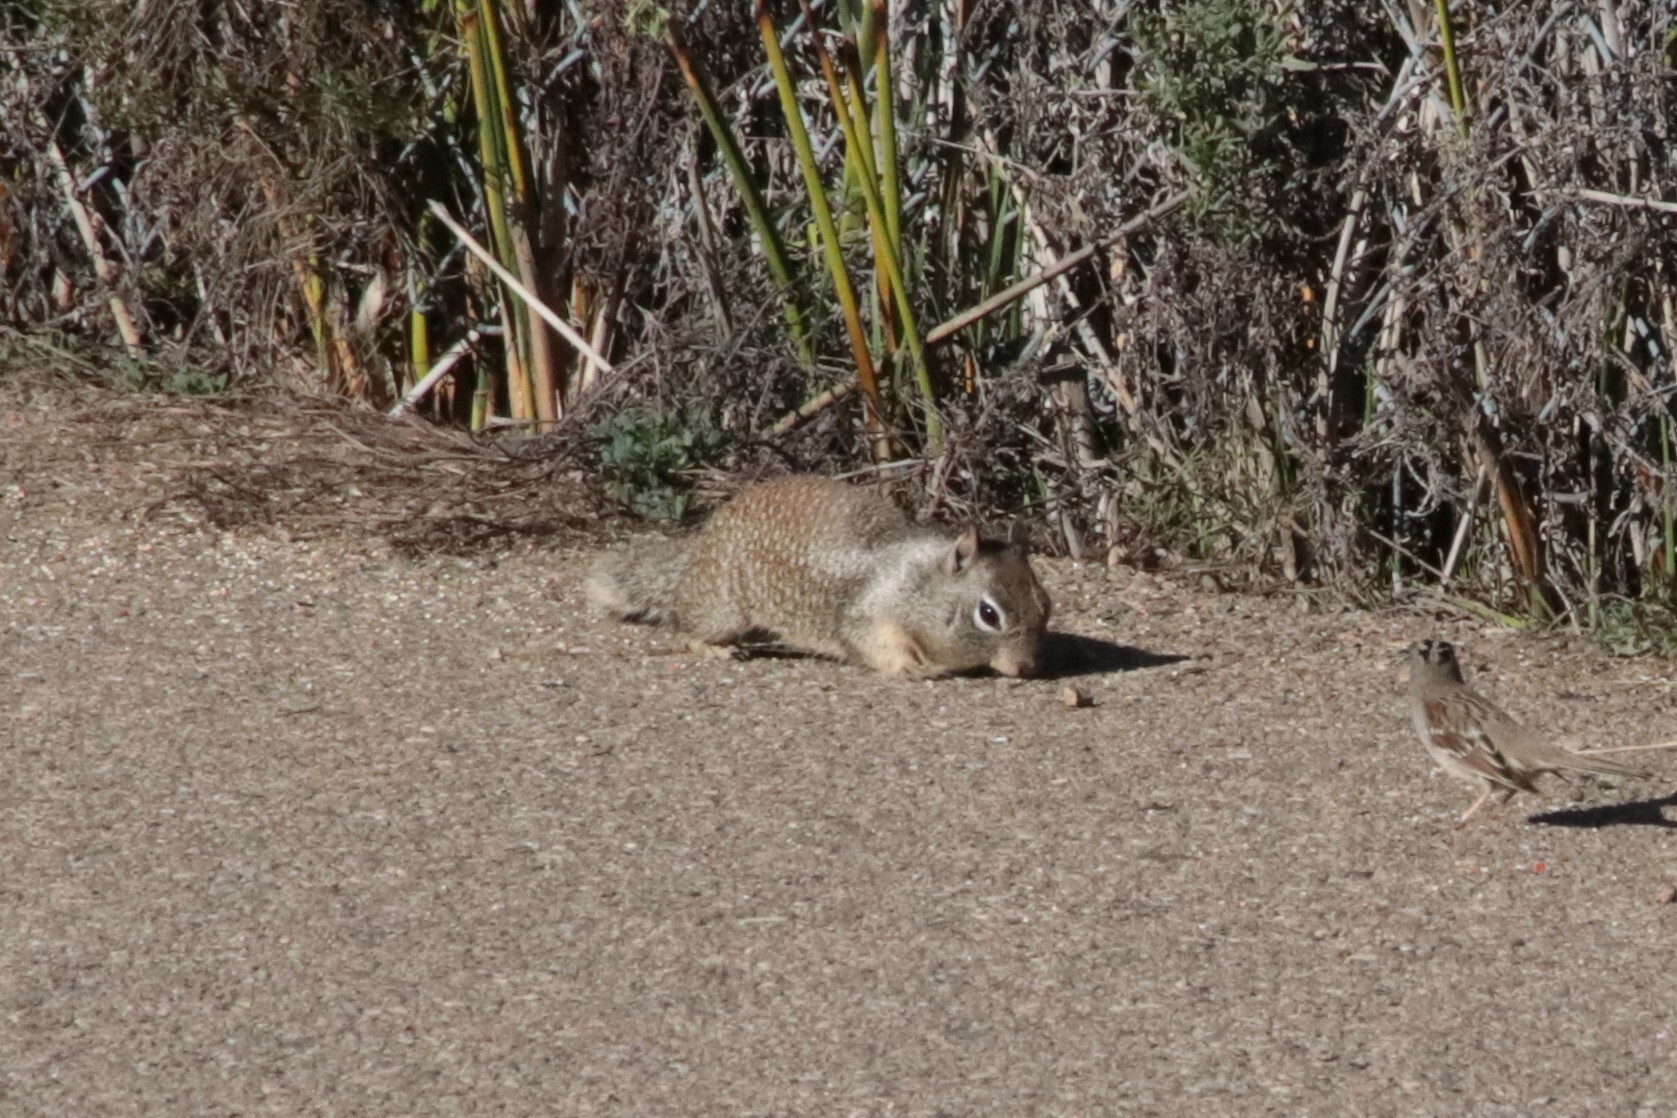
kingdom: Animalia
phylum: Chordata
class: Mammalia
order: Rodentia
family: Sciuridae
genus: Otospermophilus
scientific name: Otospermophilus beecheyi
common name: California ground squirrel
